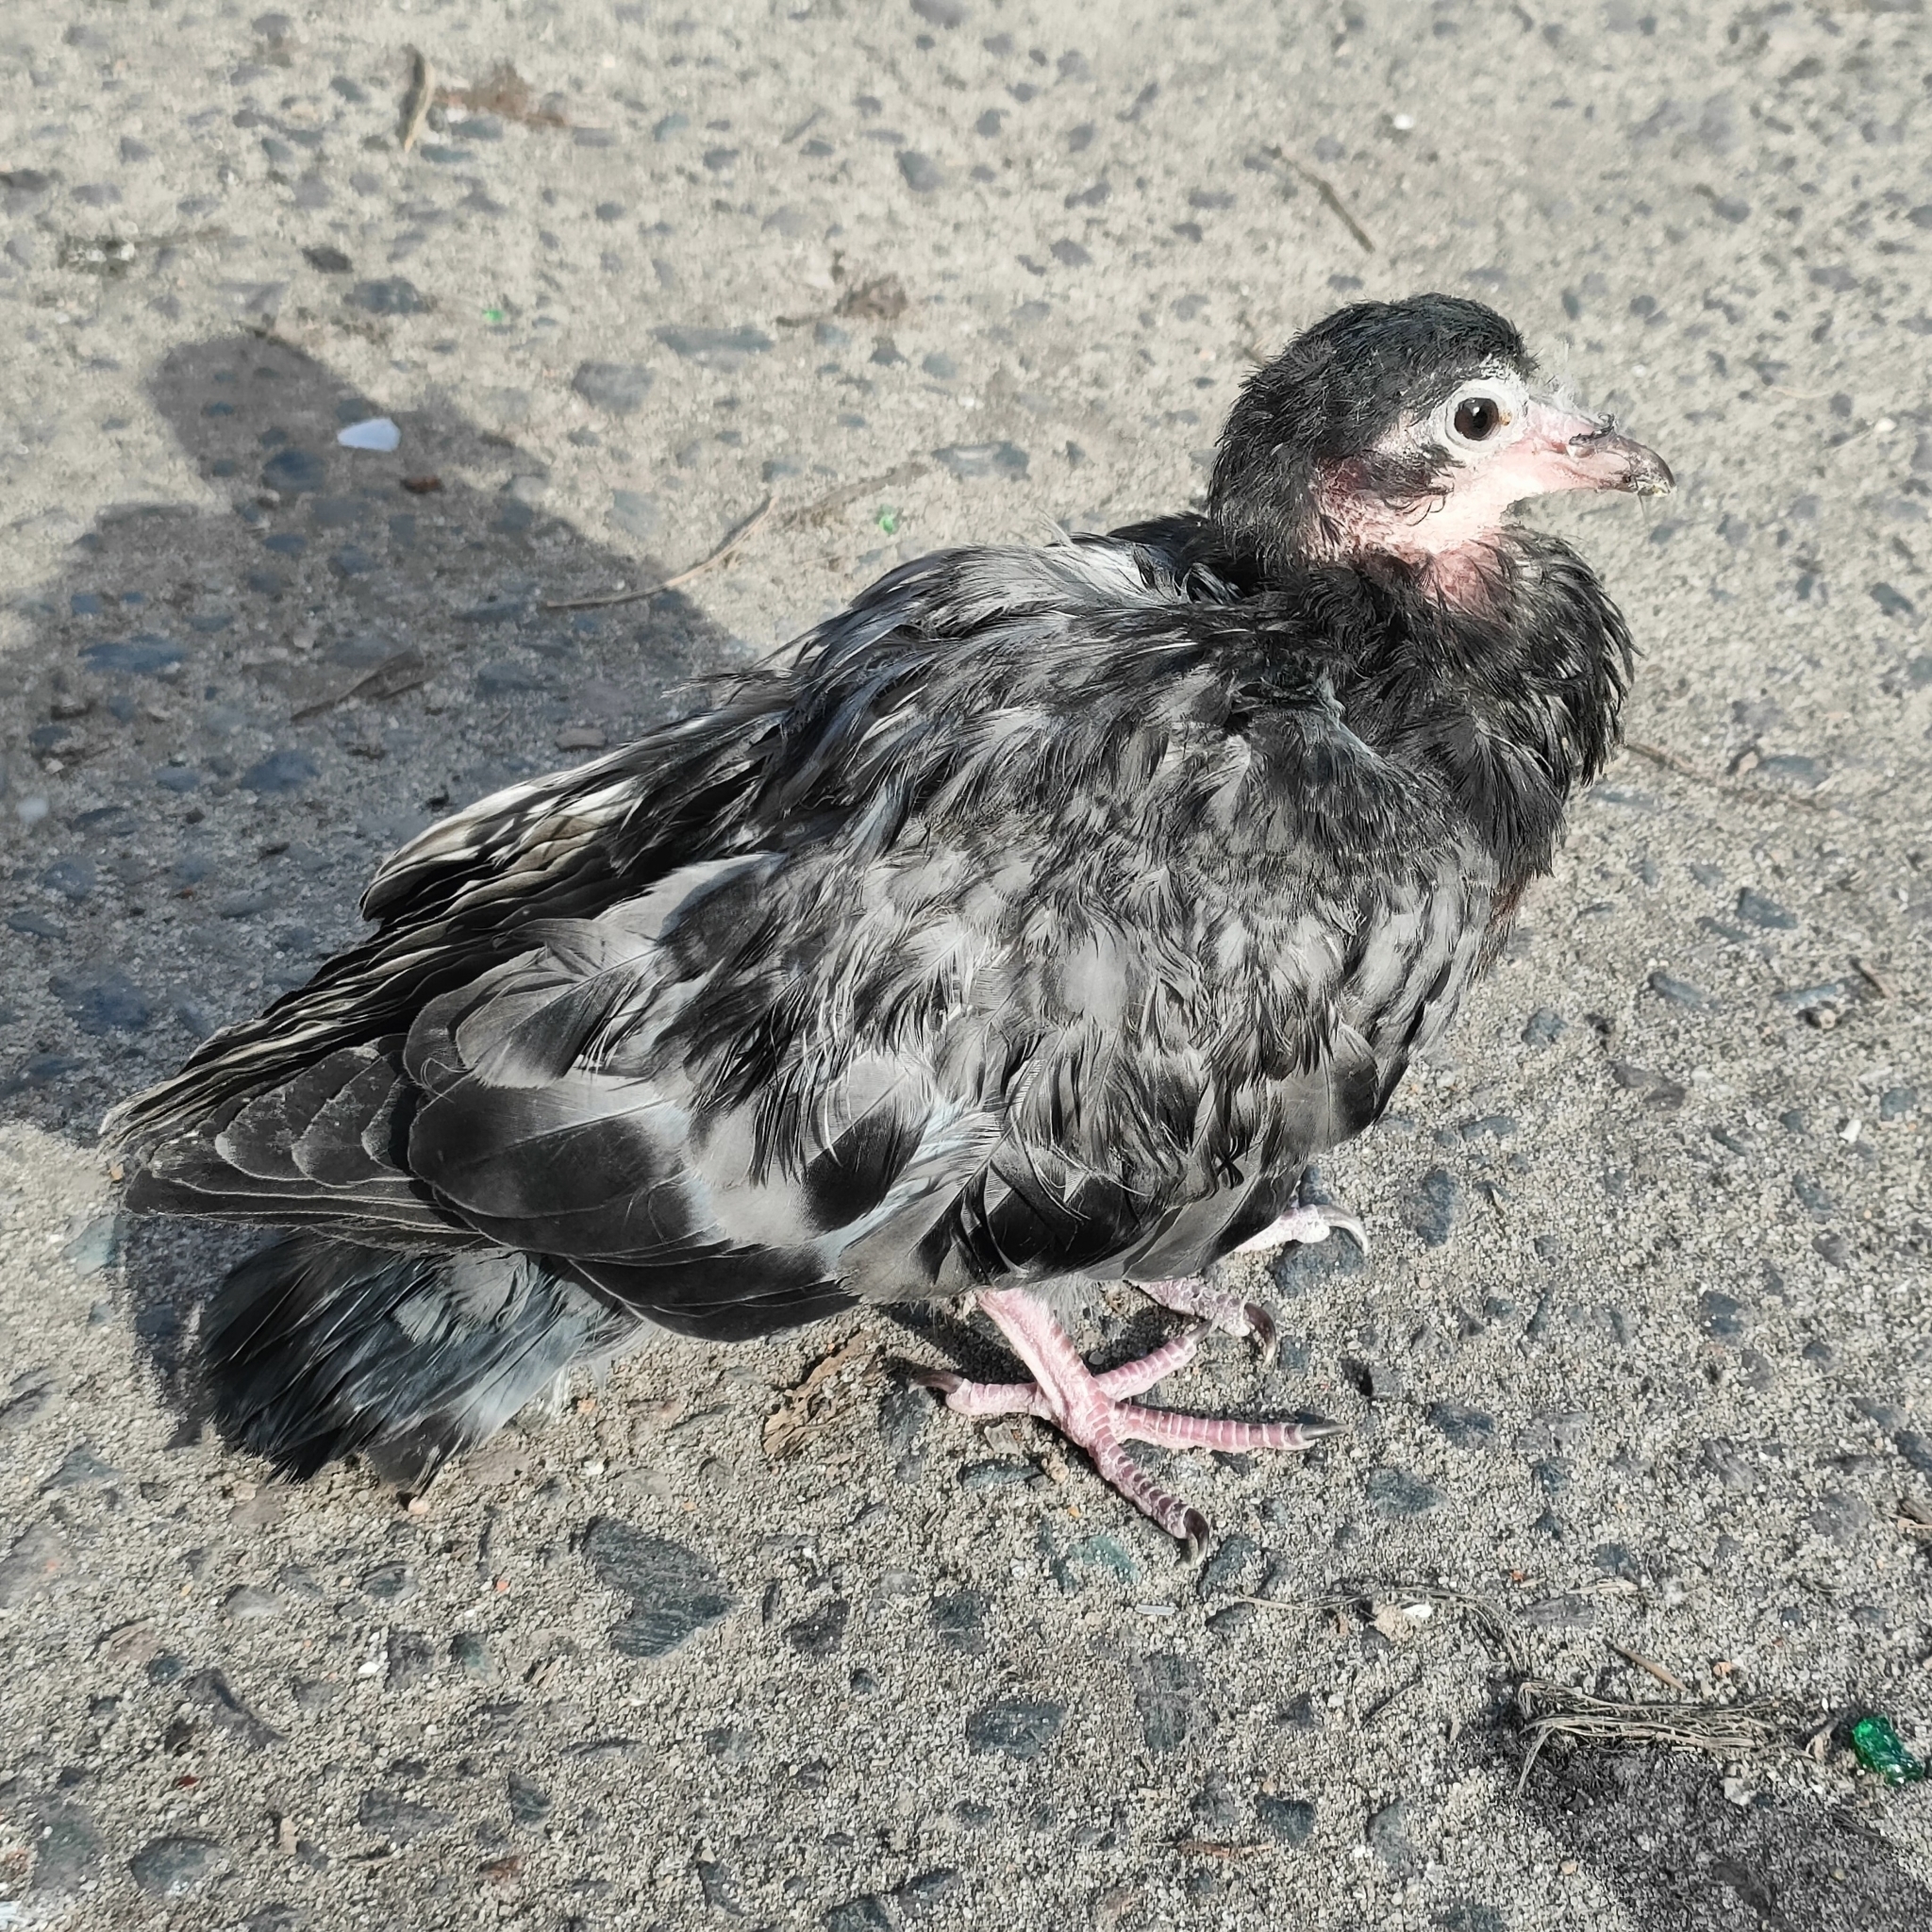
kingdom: Animalia
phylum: Chordata
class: Aves
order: Columbiformes
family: Columbidae
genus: Columba
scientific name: Columba livia
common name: Rock pigeon
